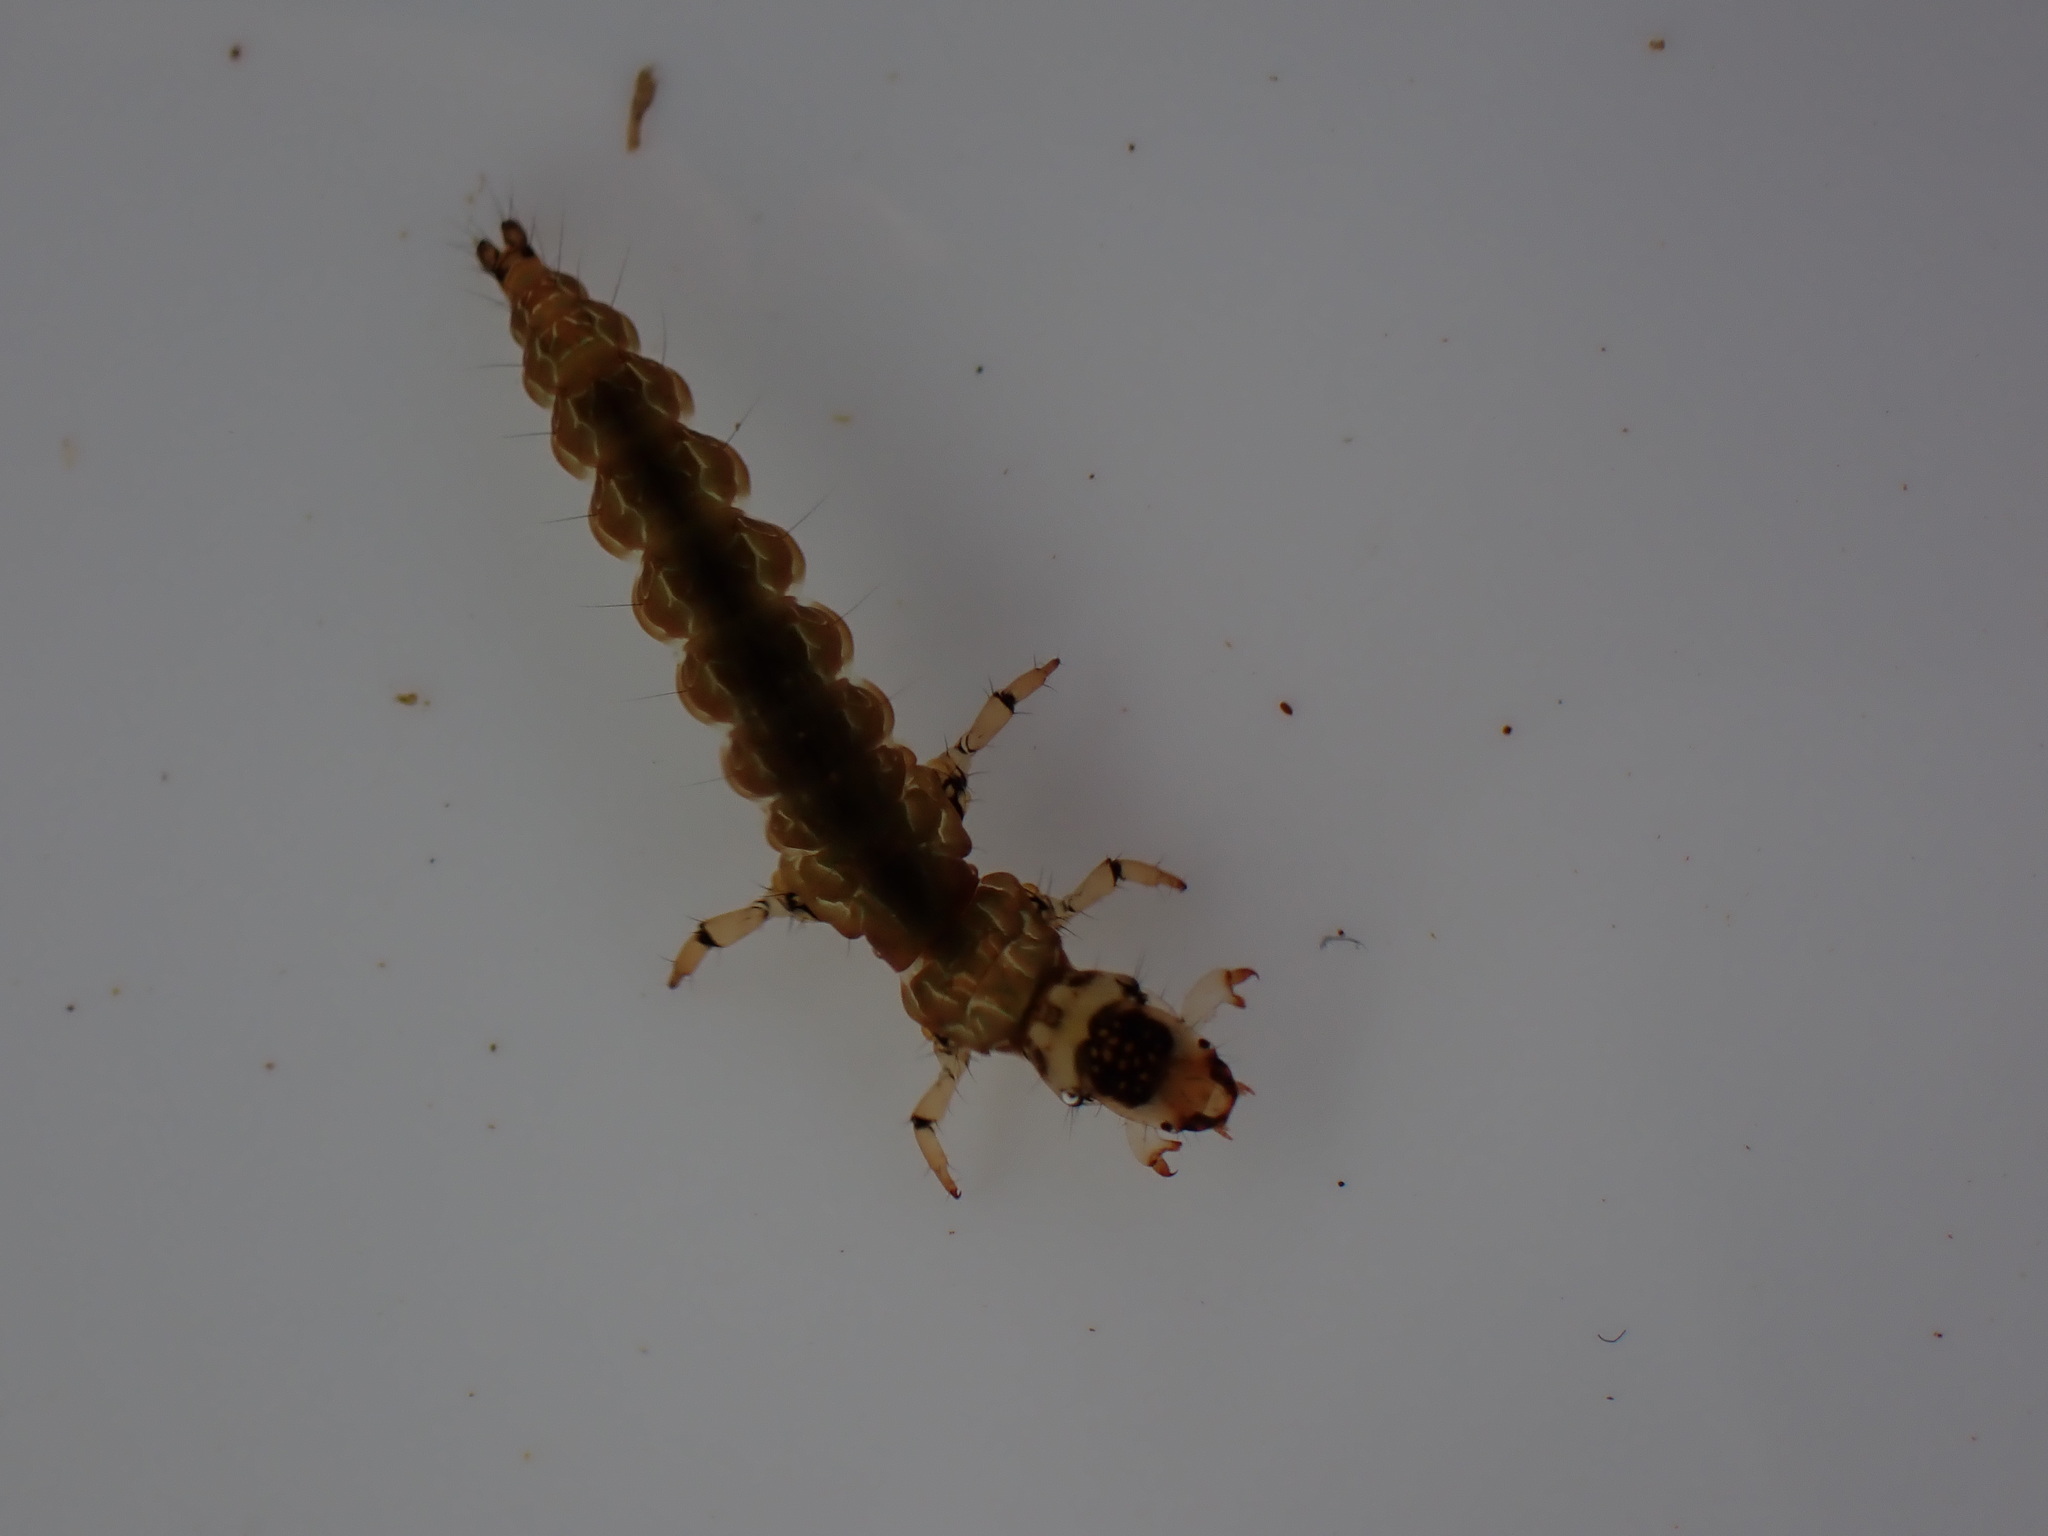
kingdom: Animalia
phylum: Arthropoda
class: Insecta
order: Trichoptera
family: Hydrobiosidae
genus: Costachorema
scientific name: Costachorema callistum
